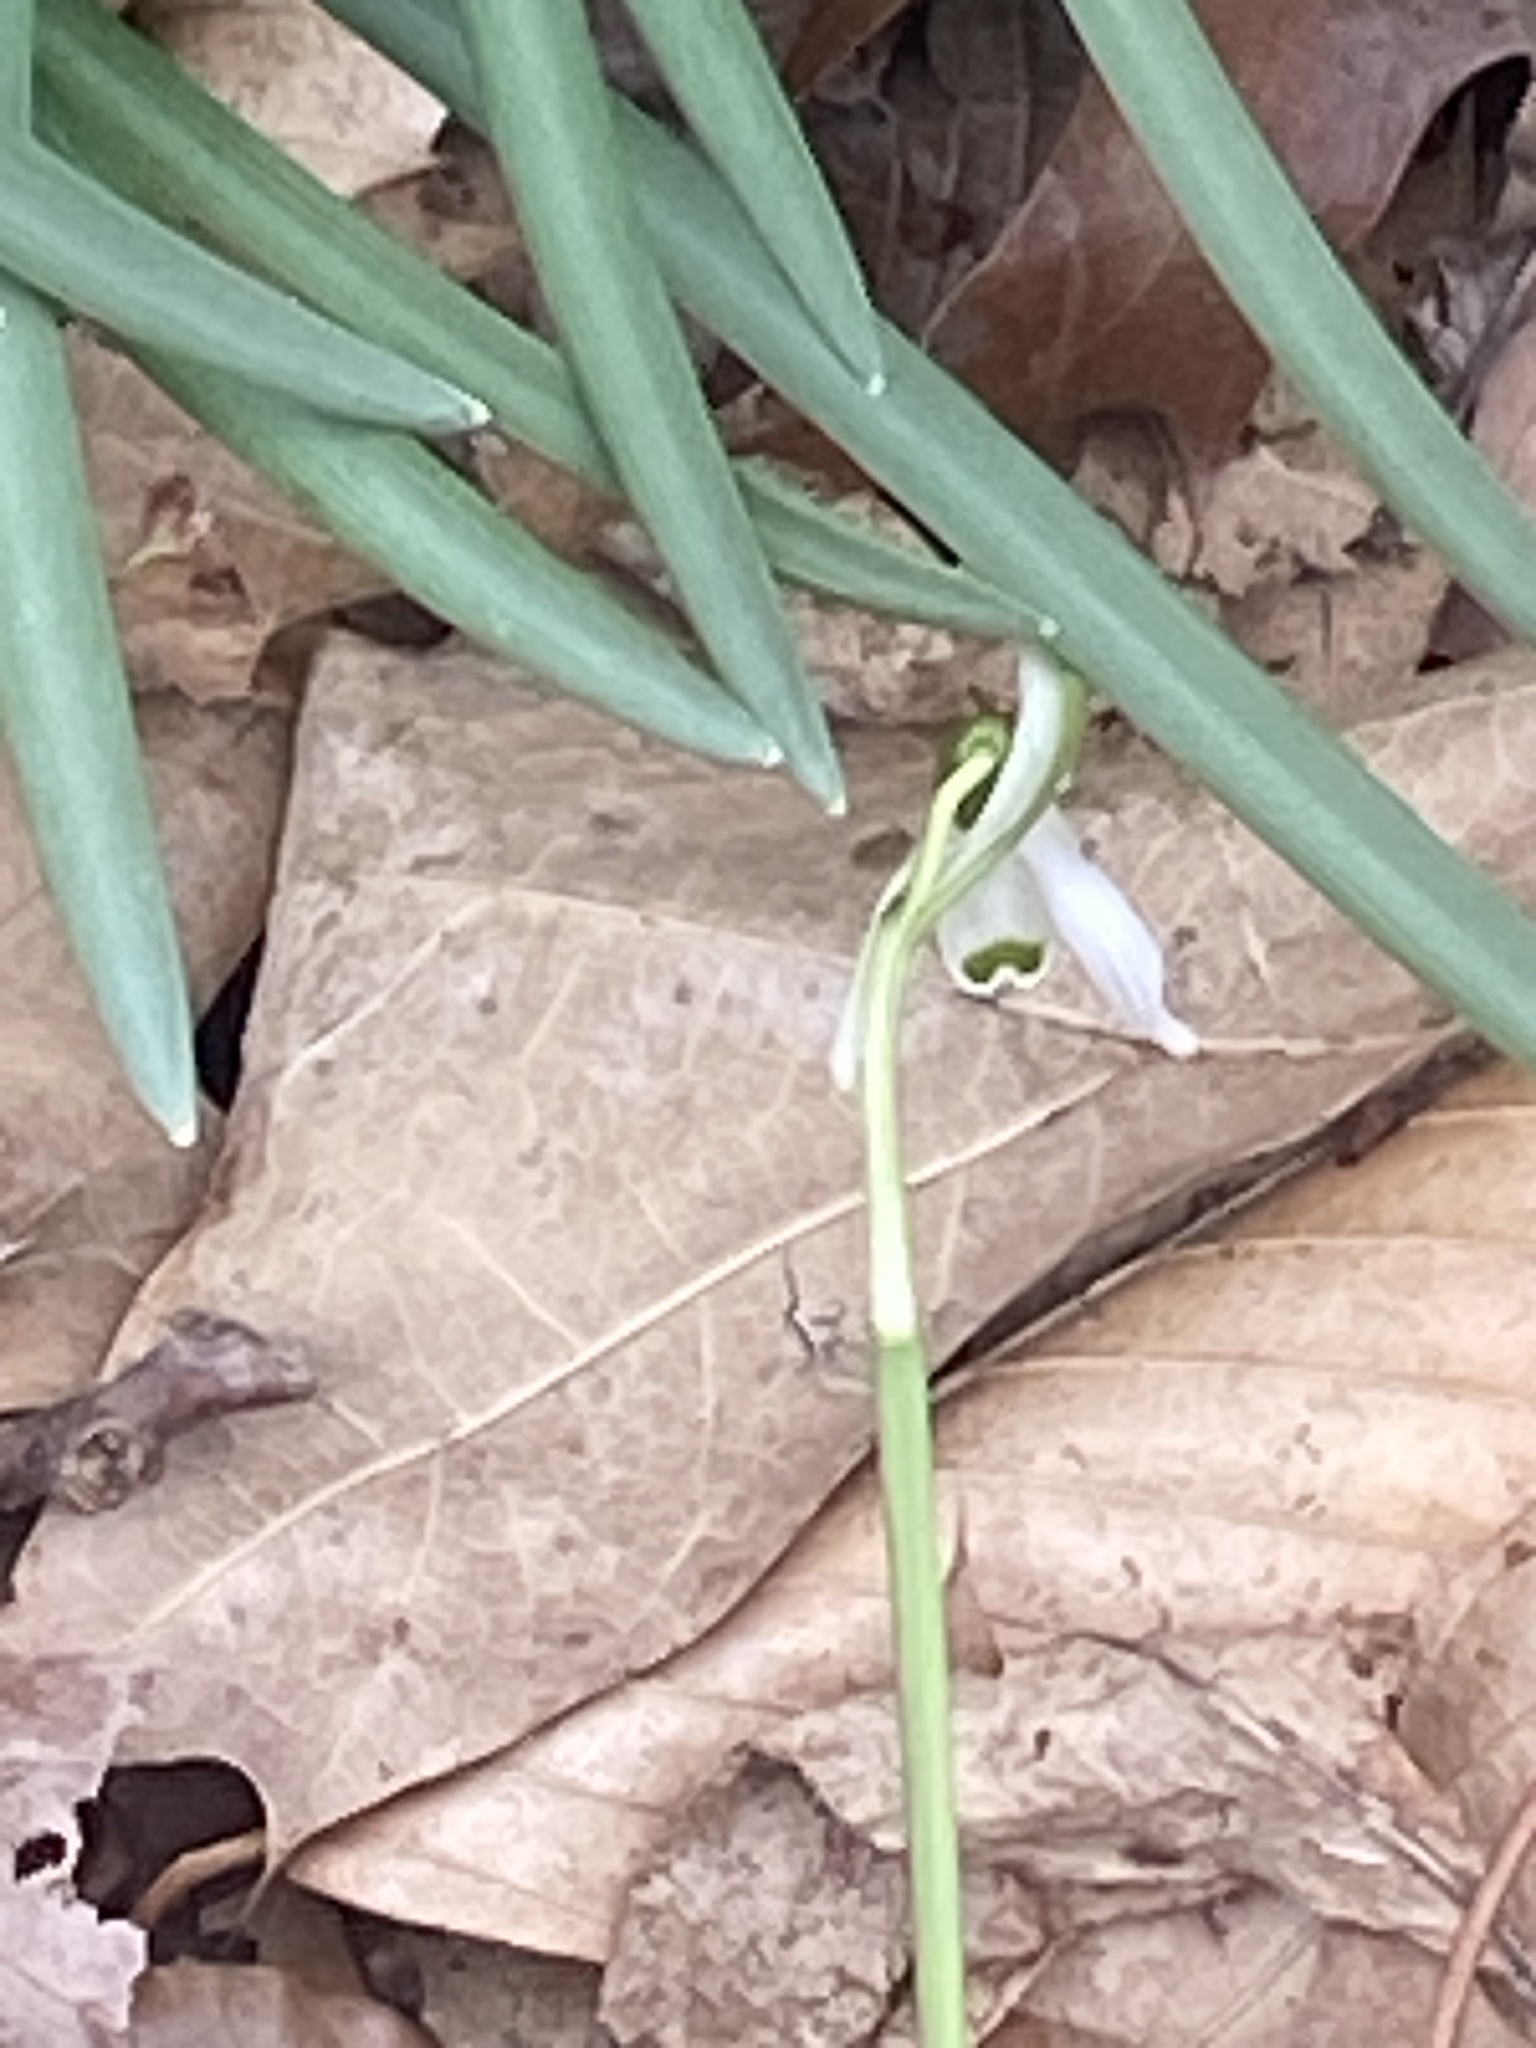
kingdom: Plantae
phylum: Tracheophyta
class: Liliopsida
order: Asparagales
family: Amaryllidaceae
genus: Galanthus
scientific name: Galanthus nivalis
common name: Snowdrop
